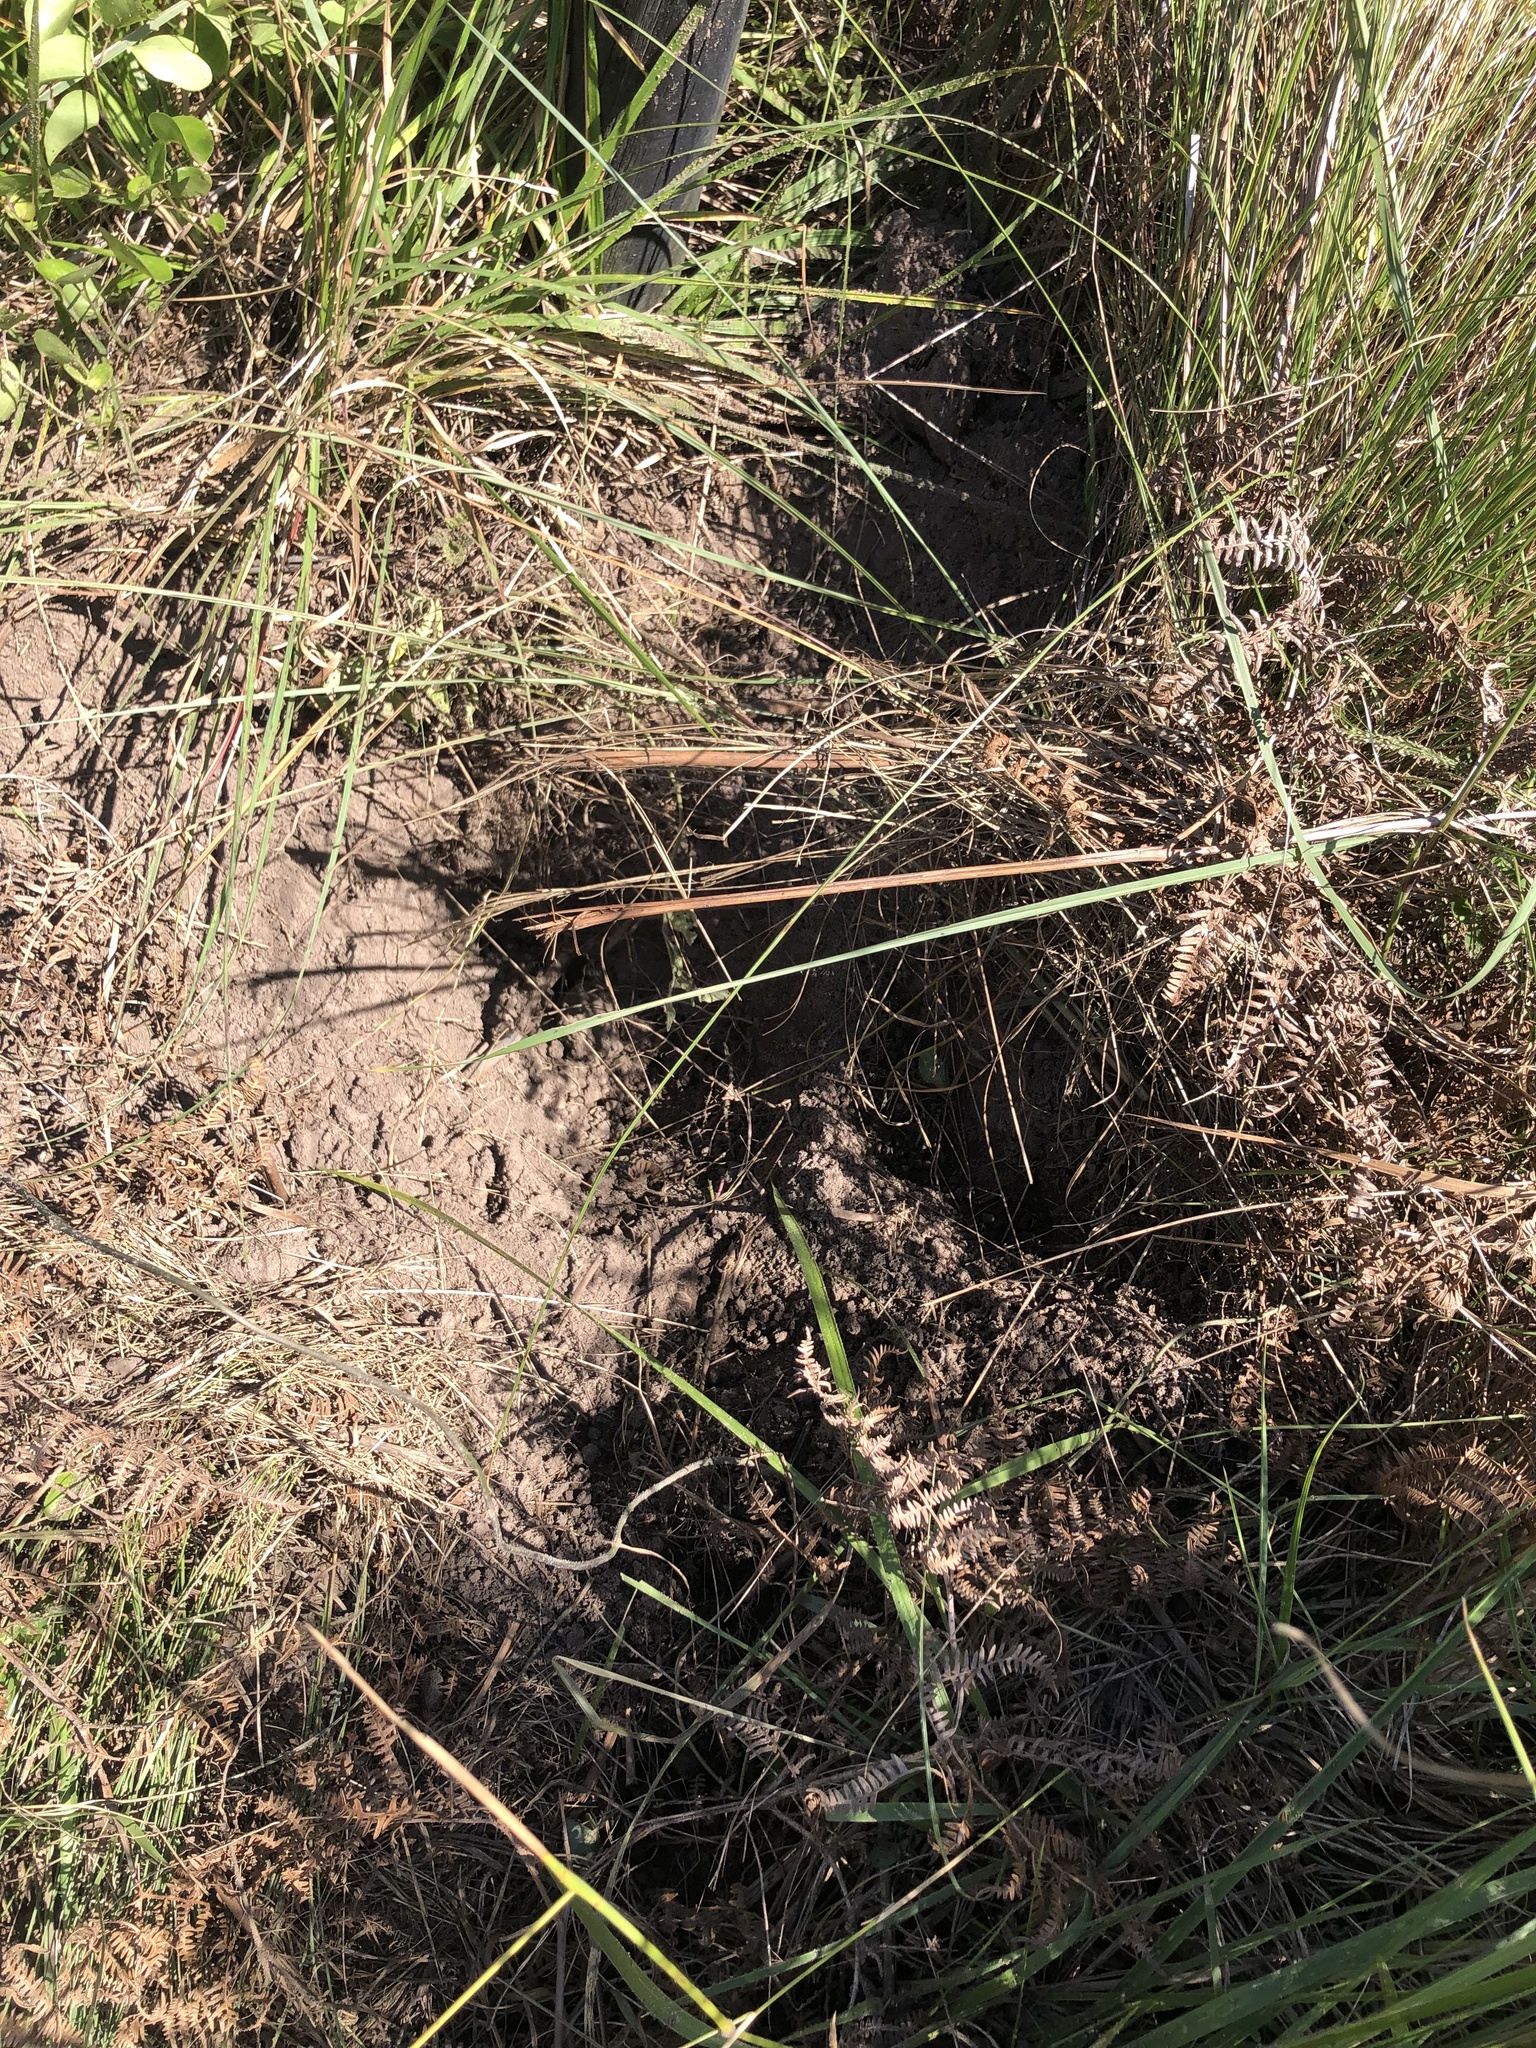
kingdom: Animalia
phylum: Chordata
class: Mammalia
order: Artiodactyla
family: Suidae
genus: Potamochoerus
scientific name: Potamochoerus larvatus
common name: Bushpig
